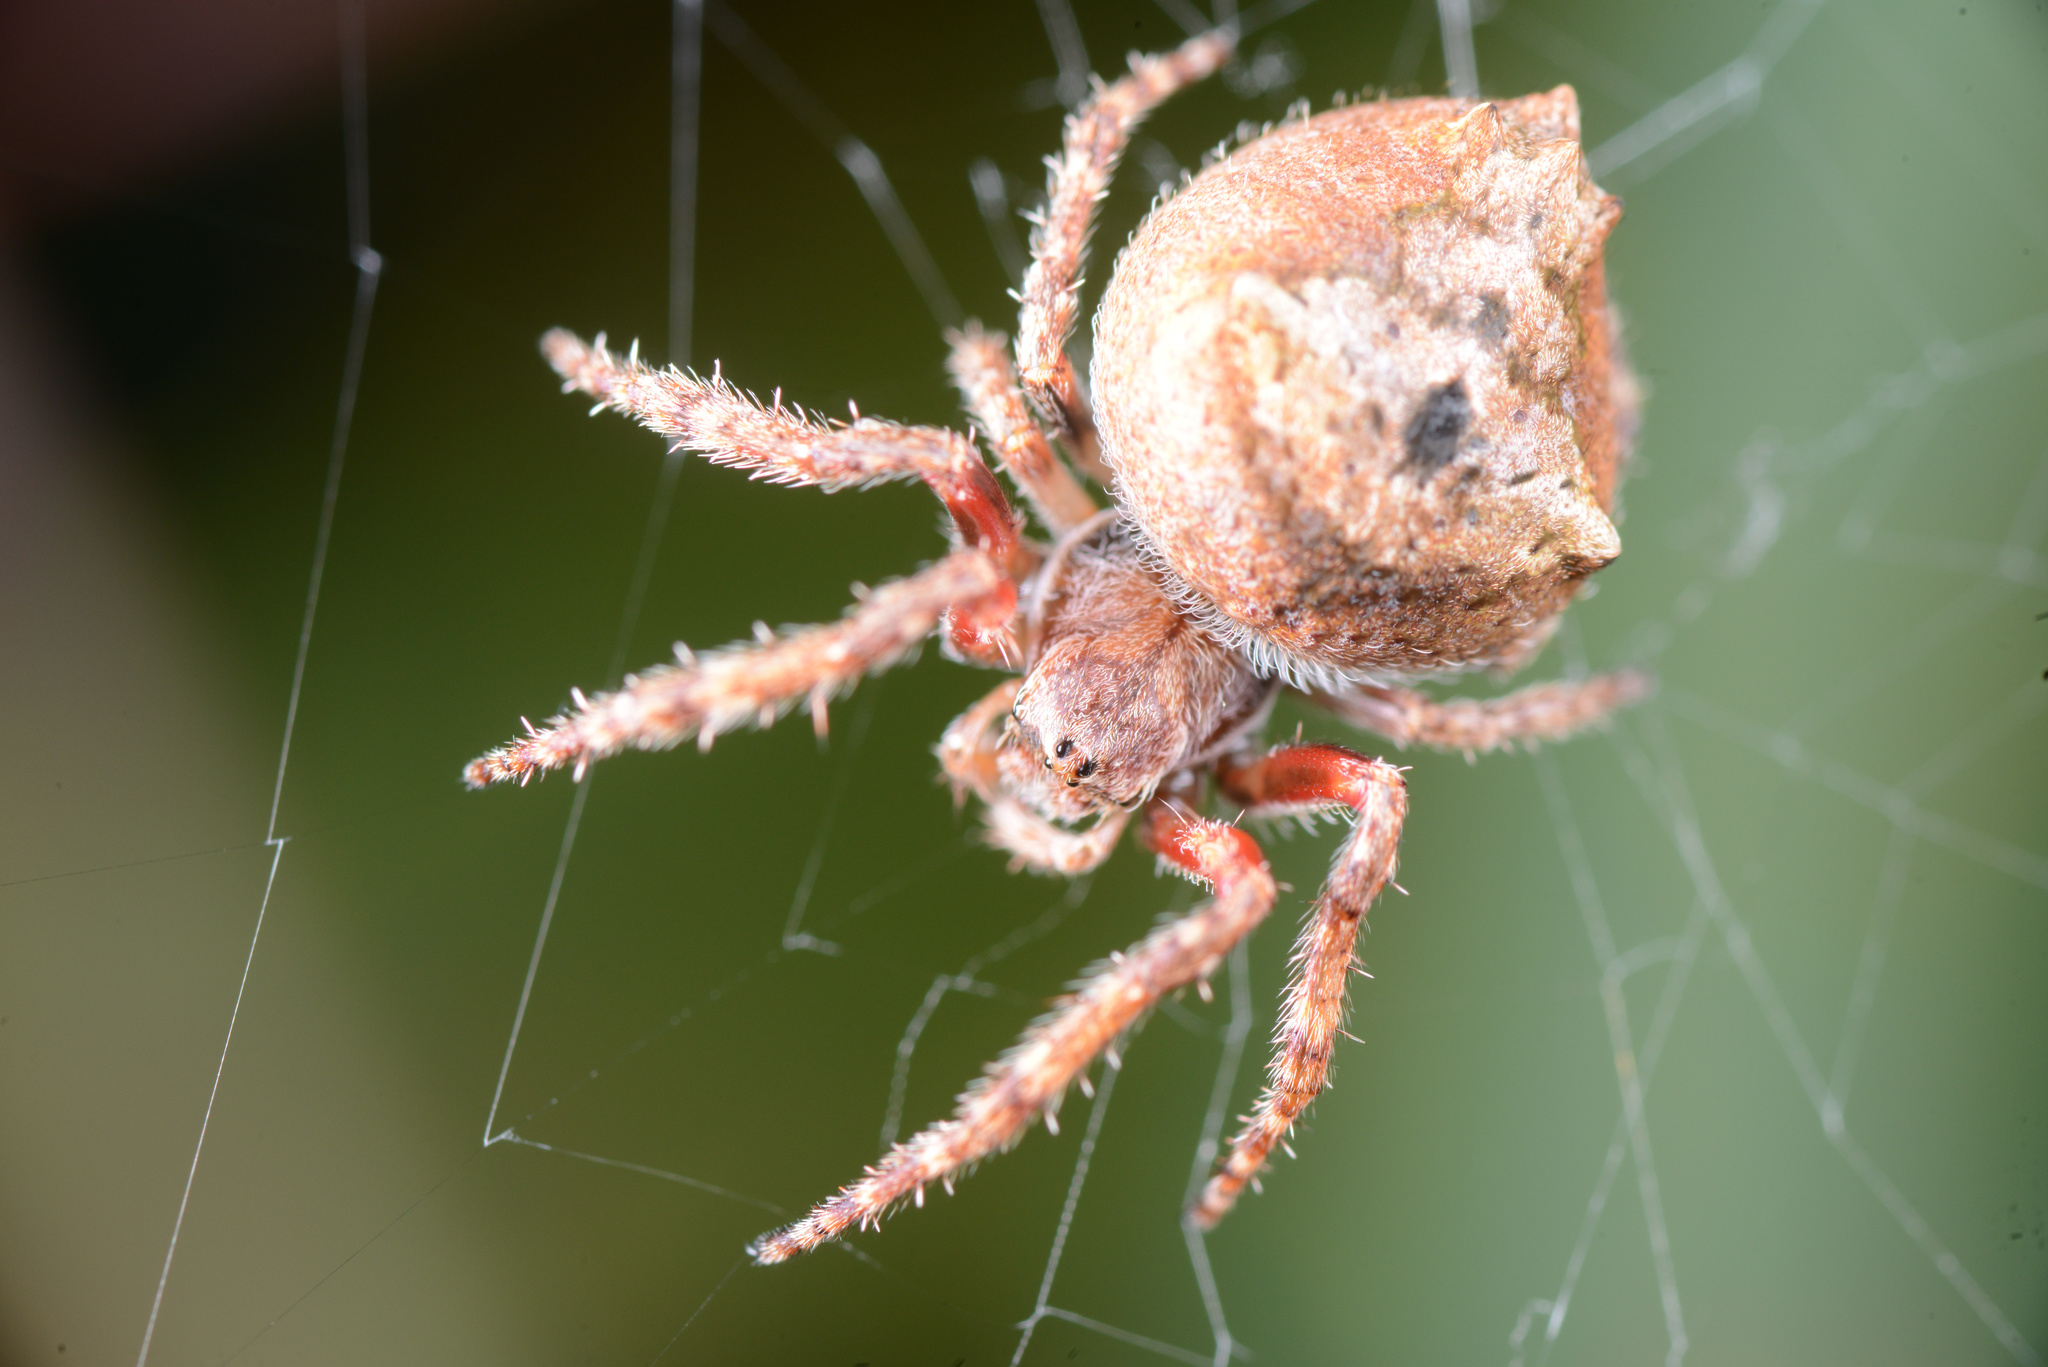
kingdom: Animalia
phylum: Arthropoda
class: Arachnida
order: Araneae
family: Araneidae
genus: Eriophora
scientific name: Eriophora pustulosa
